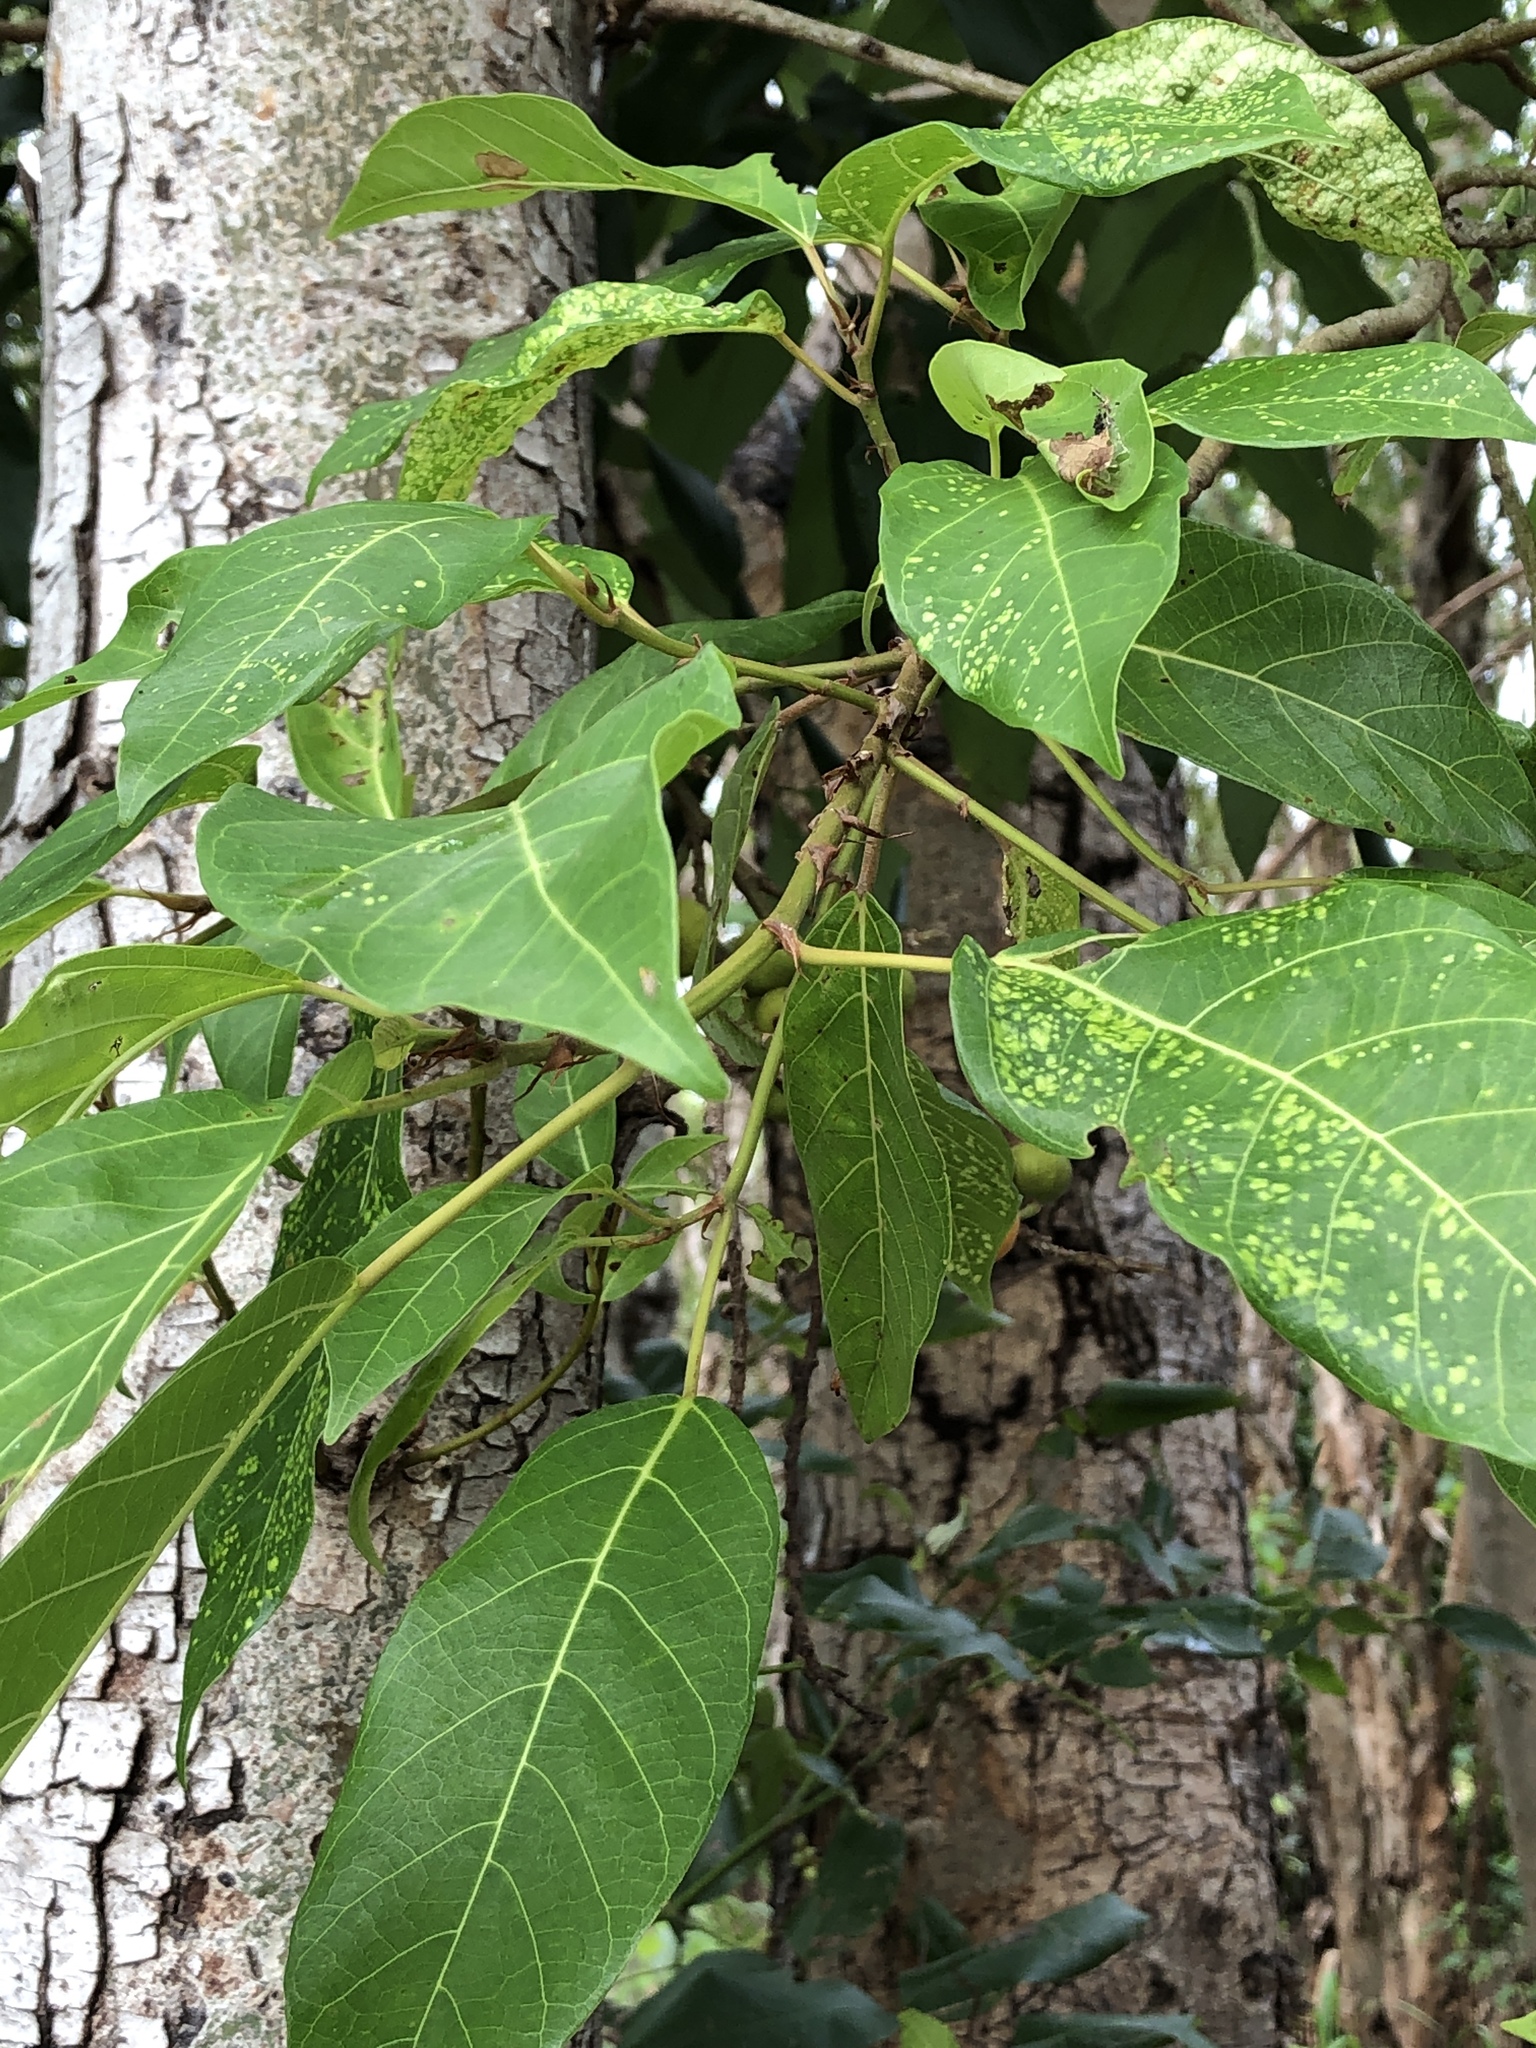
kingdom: Plantae
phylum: Tracheophyta
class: Magnoliopsida
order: Rosales
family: Moraceae
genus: Ficus
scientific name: Ficus racemosa
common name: Cluster fig
